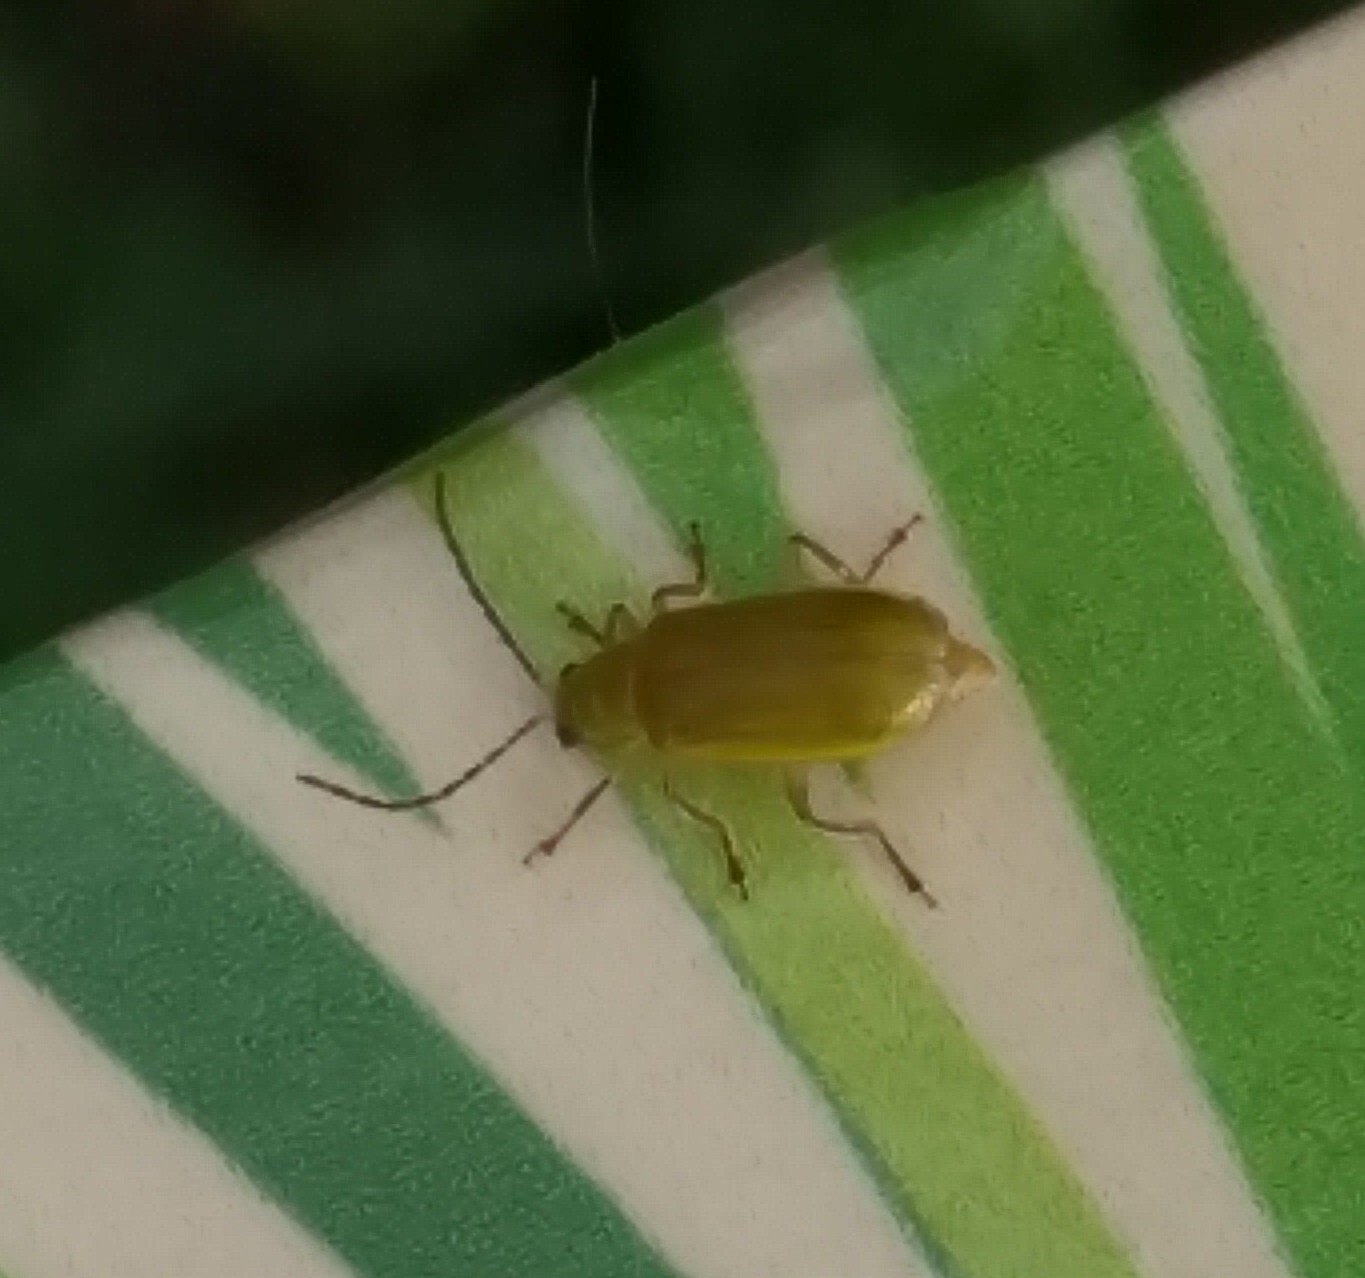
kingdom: Animalia
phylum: Arthropoda
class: Insecta
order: Coleoptera
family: Chrysomelidae
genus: Diabrotica
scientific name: Diabrotica barberi
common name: Northern corn rootworm
